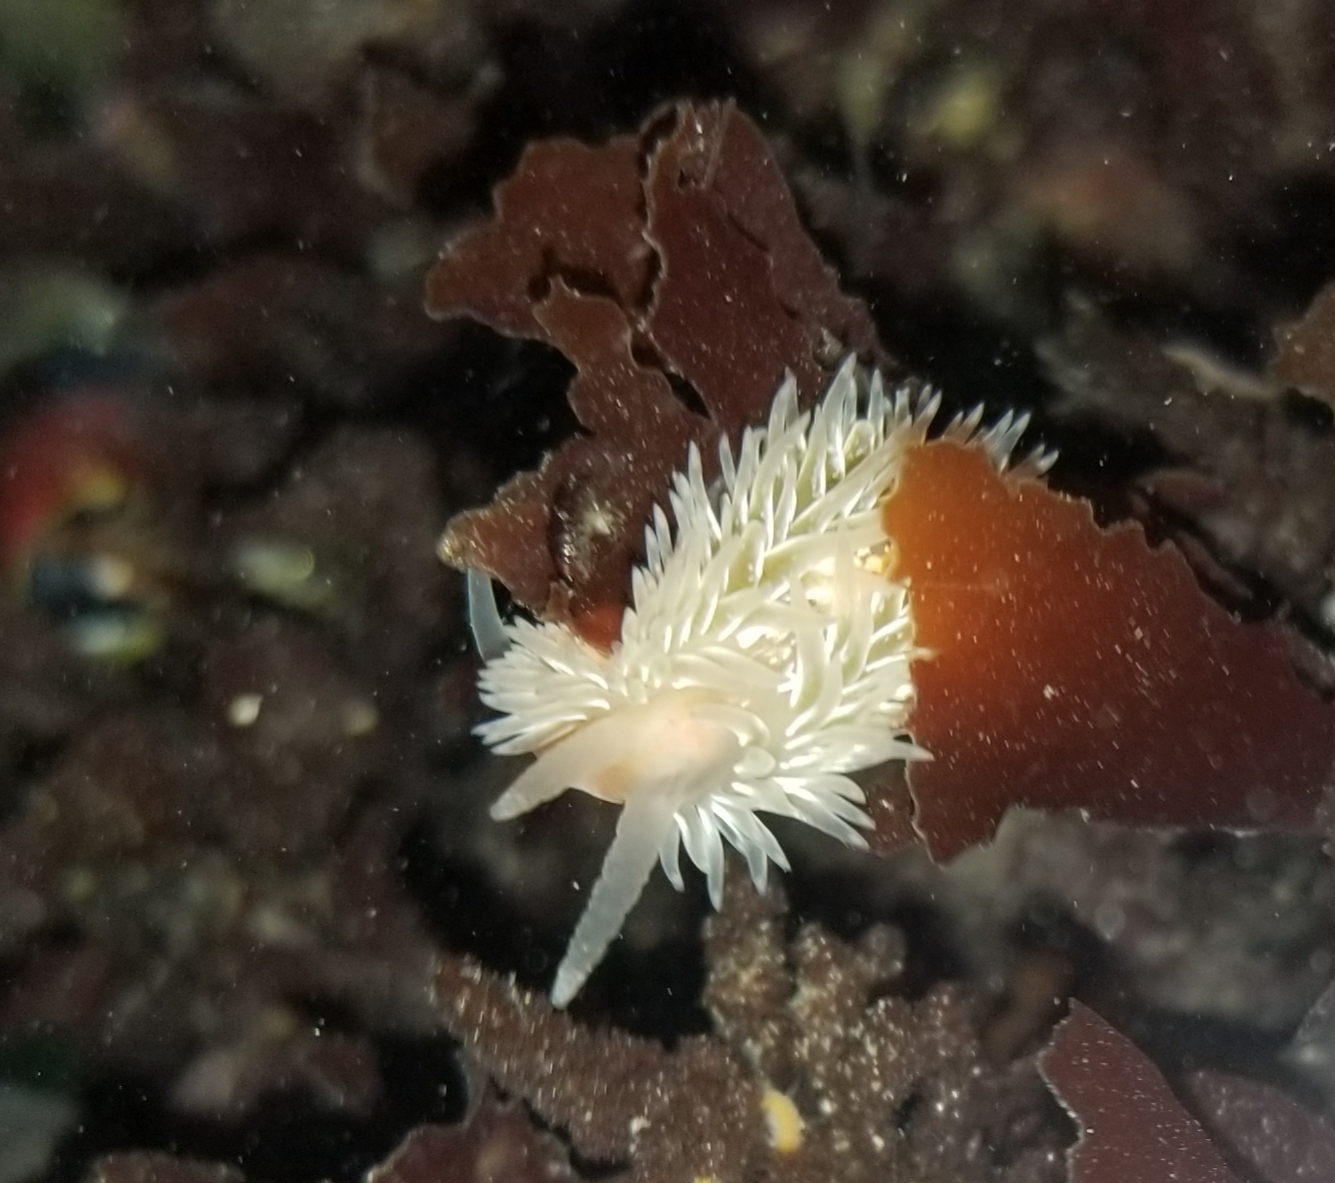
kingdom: Animalia
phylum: Mollusca
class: Gastropoda
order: Nudibranchia
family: Aeolidiidae
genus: Aeolidia
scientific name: Aeolidia loui
